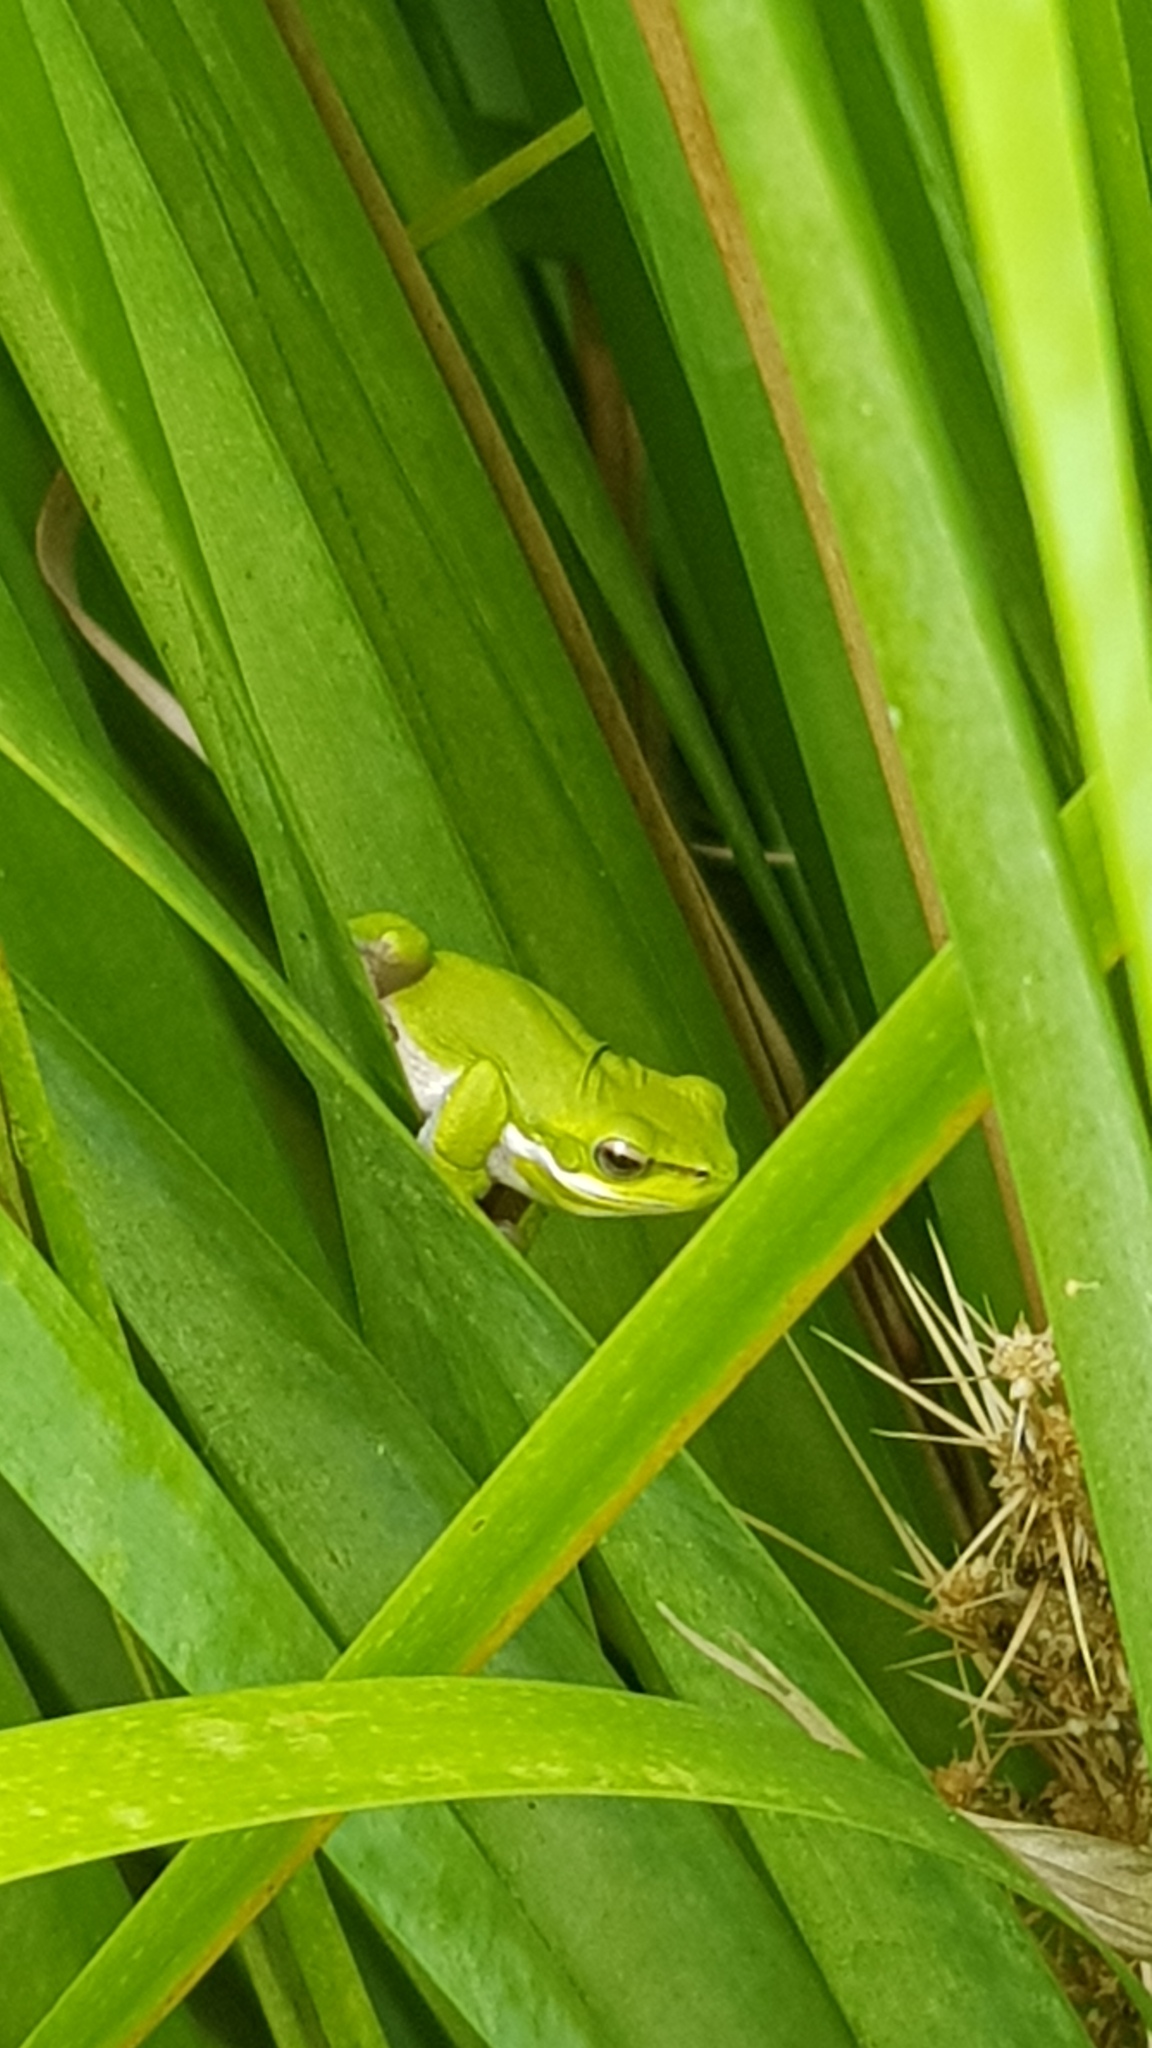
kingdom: Animalia
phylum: Chordata
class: Amphibia
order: Anura
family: Pelodryadidae
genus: Litoria
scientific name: Litoria fallax
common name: Eastern dwarf treefrog
